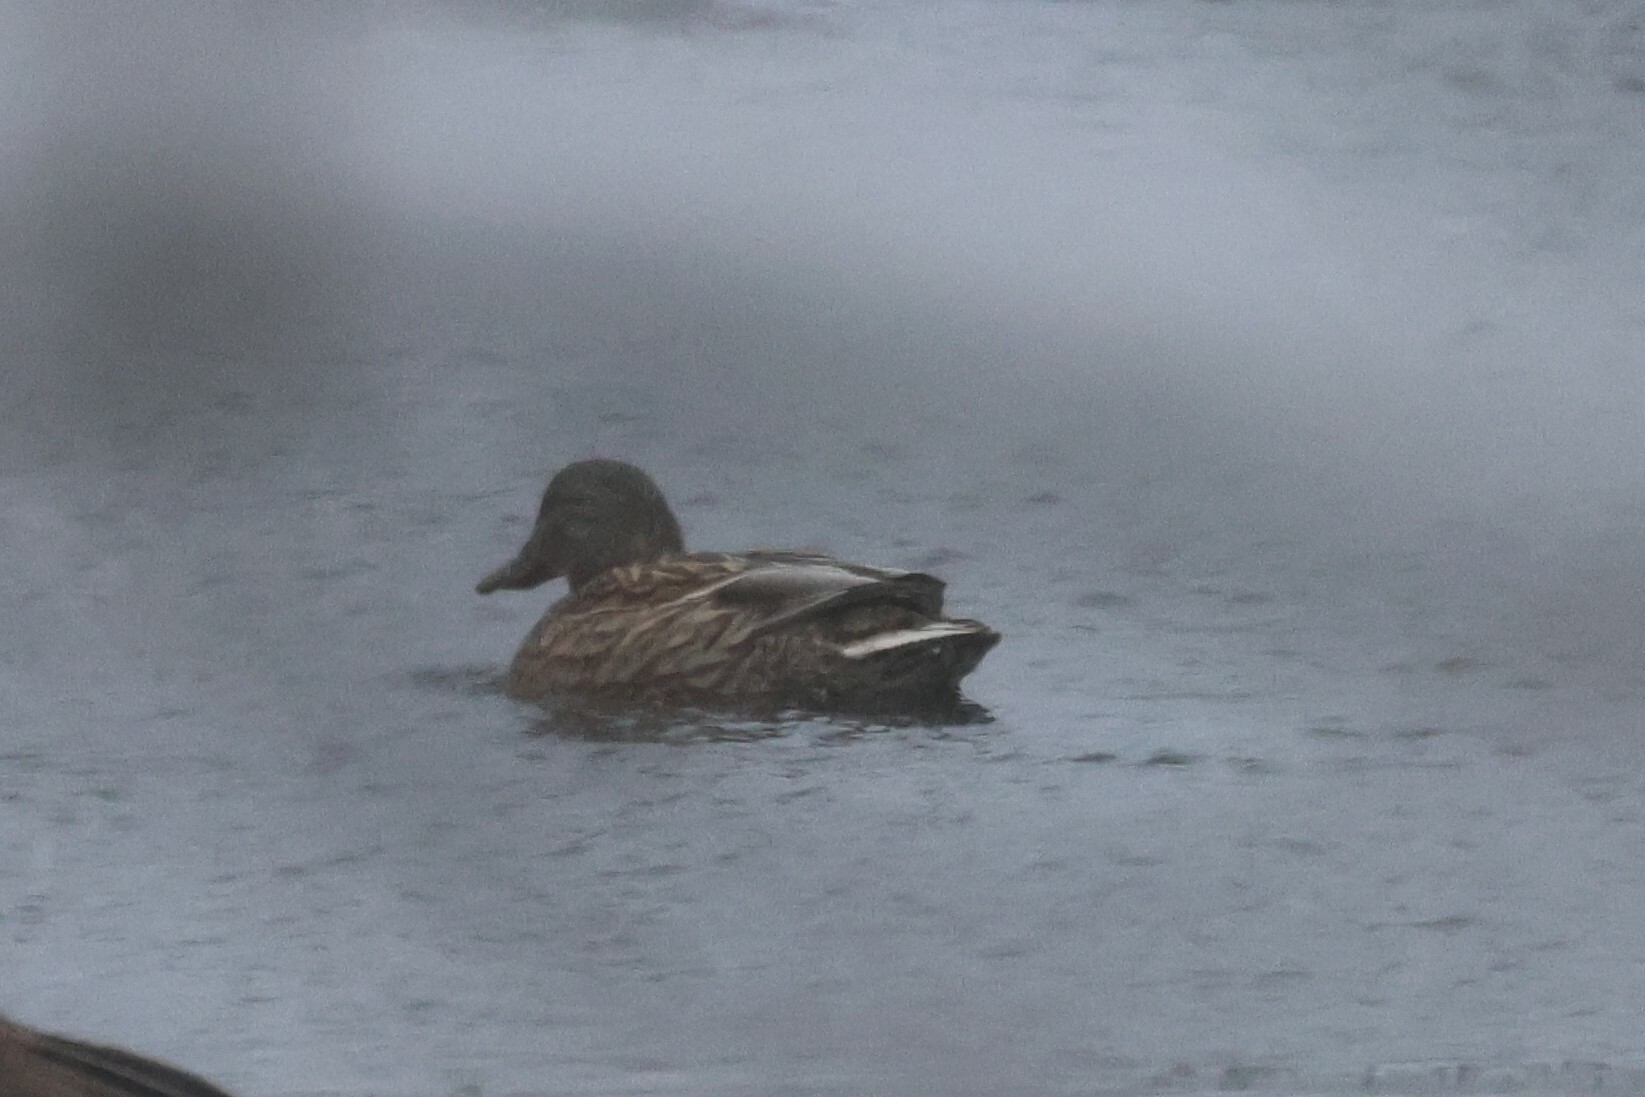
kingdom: Animalia
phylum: Chordata
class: Aves
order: Anseriformes
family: Anatidae
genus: Anas
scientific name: Anas platyrhynchos
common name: Mallard
